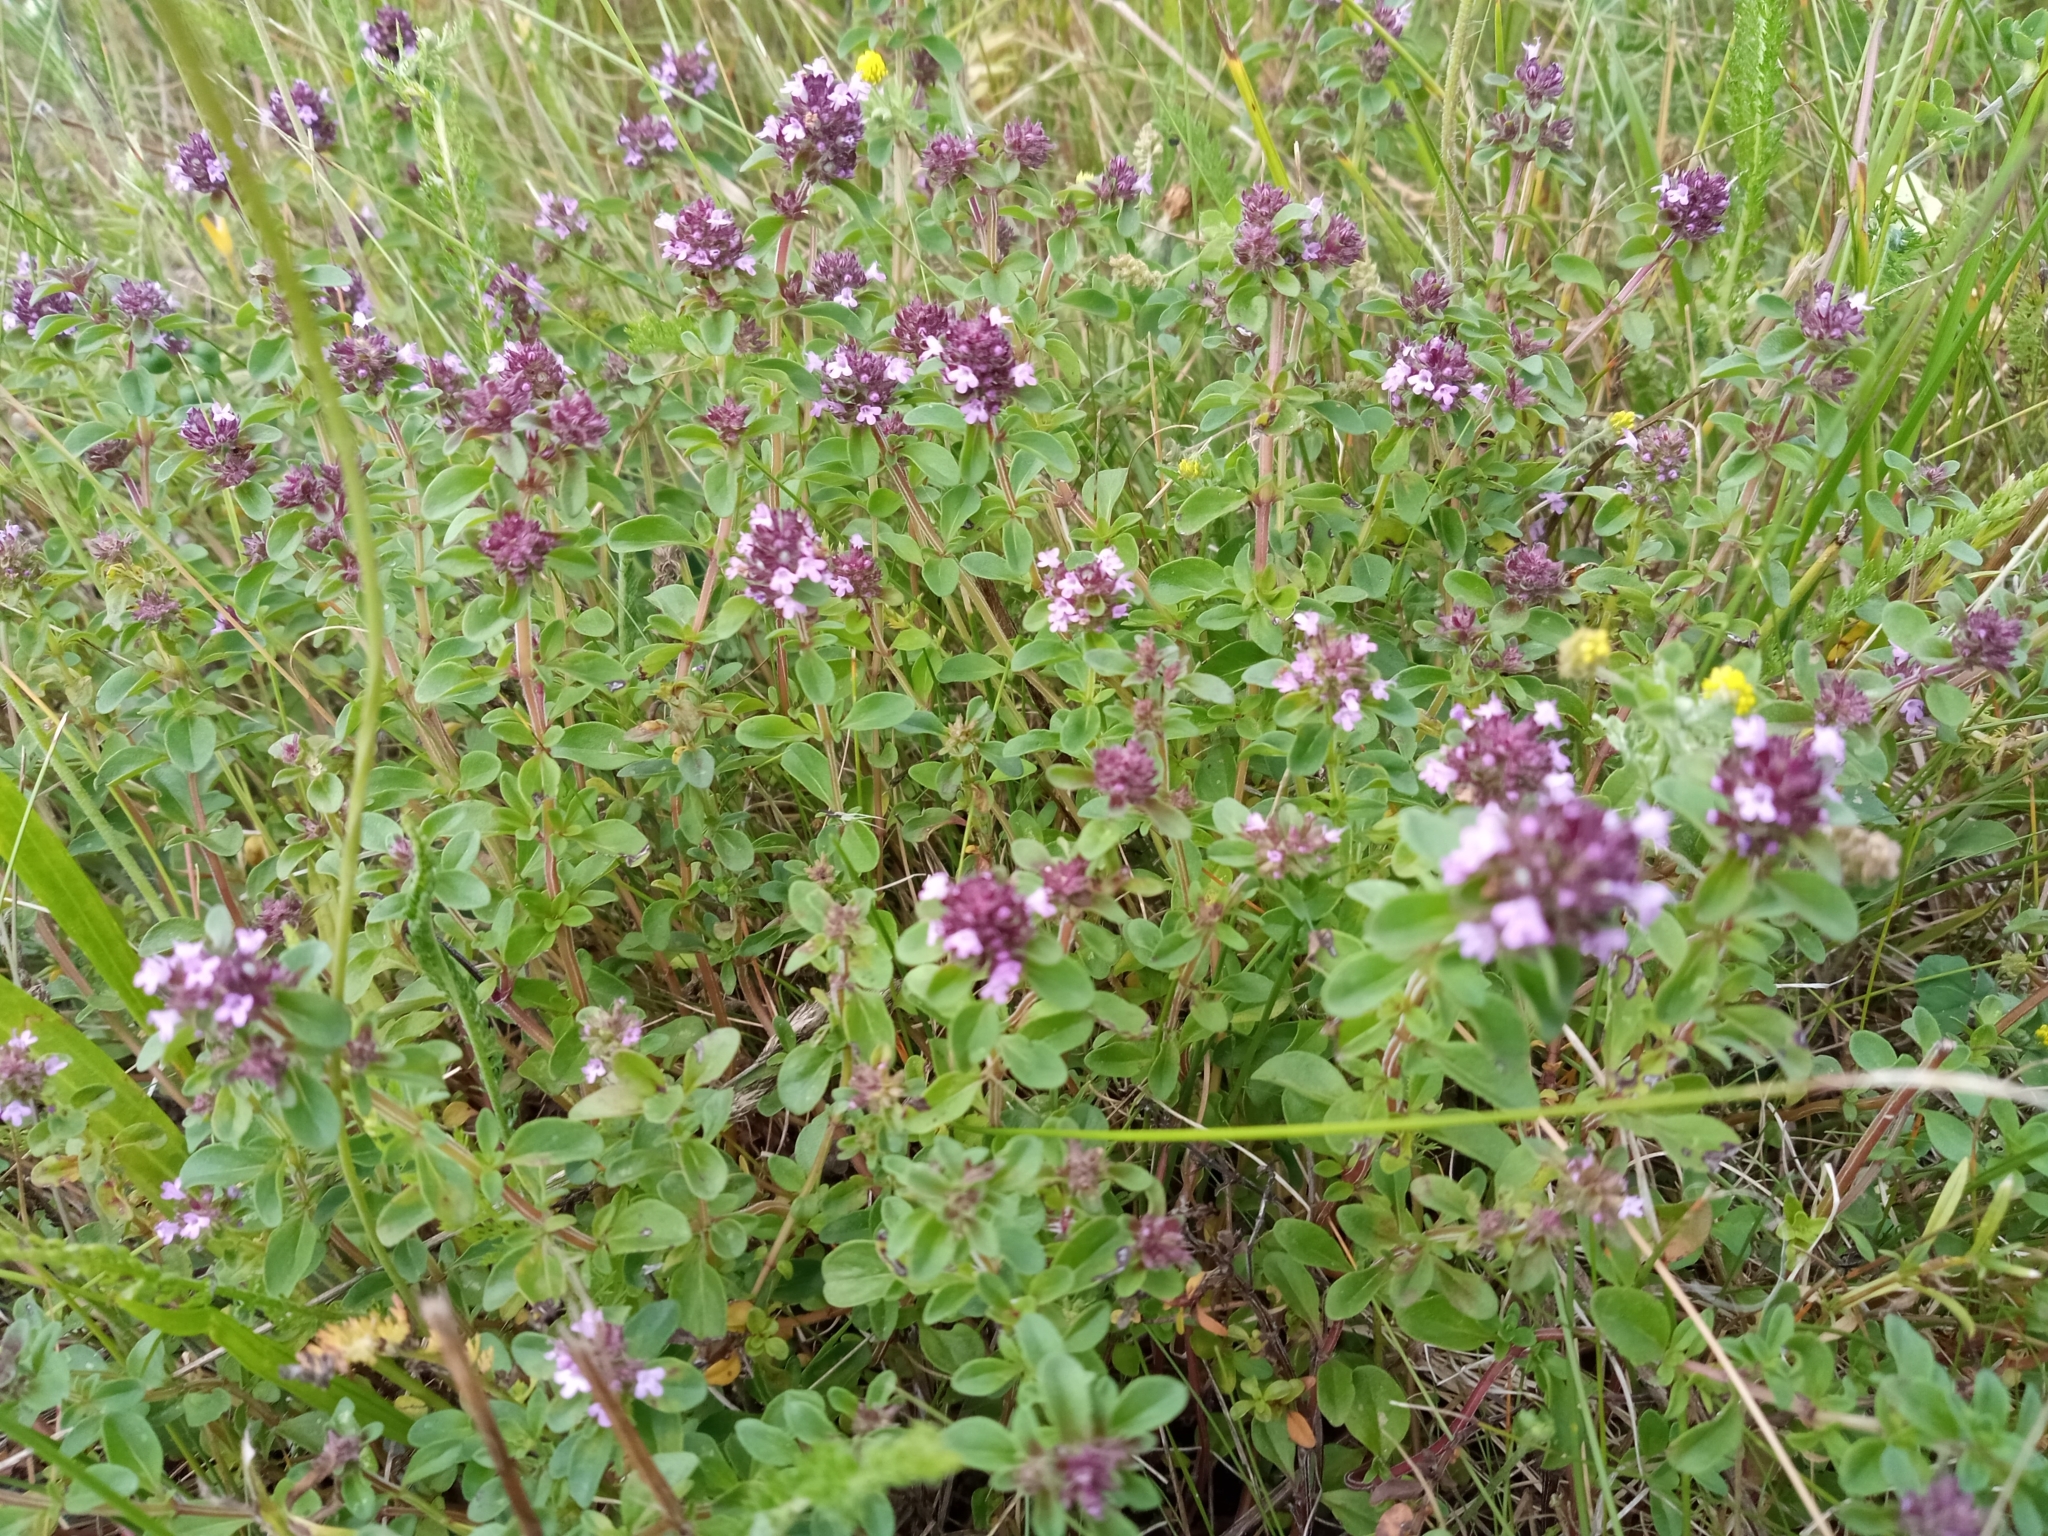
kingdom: Plantae
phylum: Tracheophyta
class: Magnoliopsida
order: Lamiales
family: Lamiaceae
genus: Thymus
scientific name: Thymus pulegioides
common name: Large thyme
